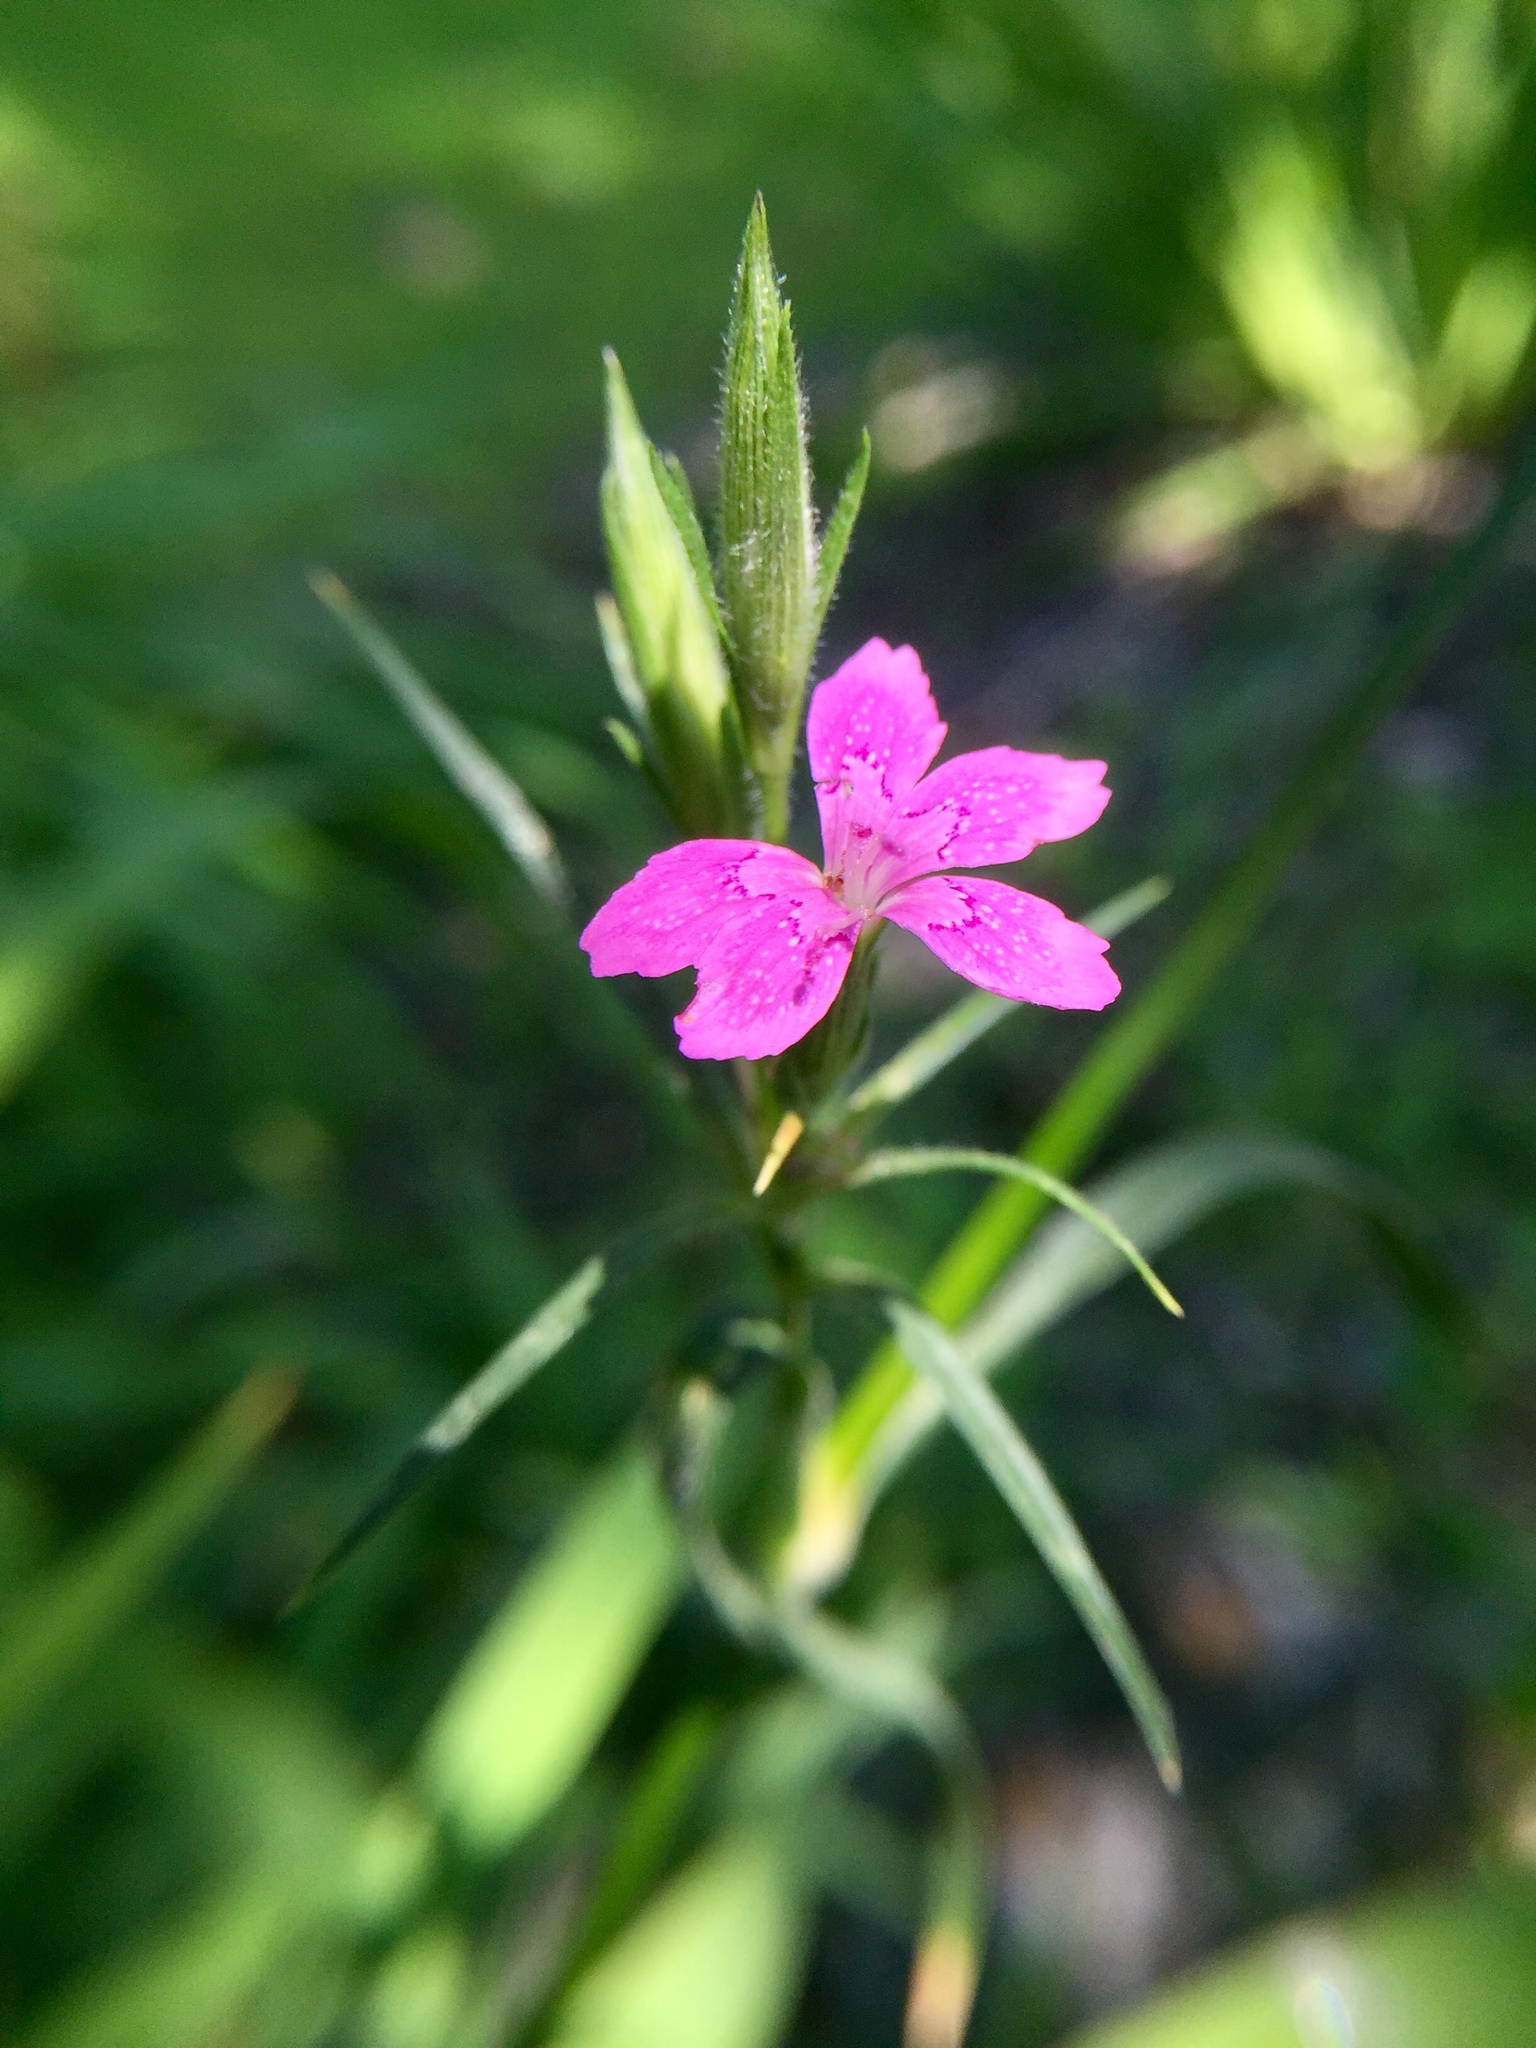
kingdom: Plantae
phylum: Tracheophyta
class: Magnoliopsida
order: Caryophyllales
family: Caryophyllaceae
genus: Dianthus
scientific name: Dianthus armeria
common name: Deptford pink
